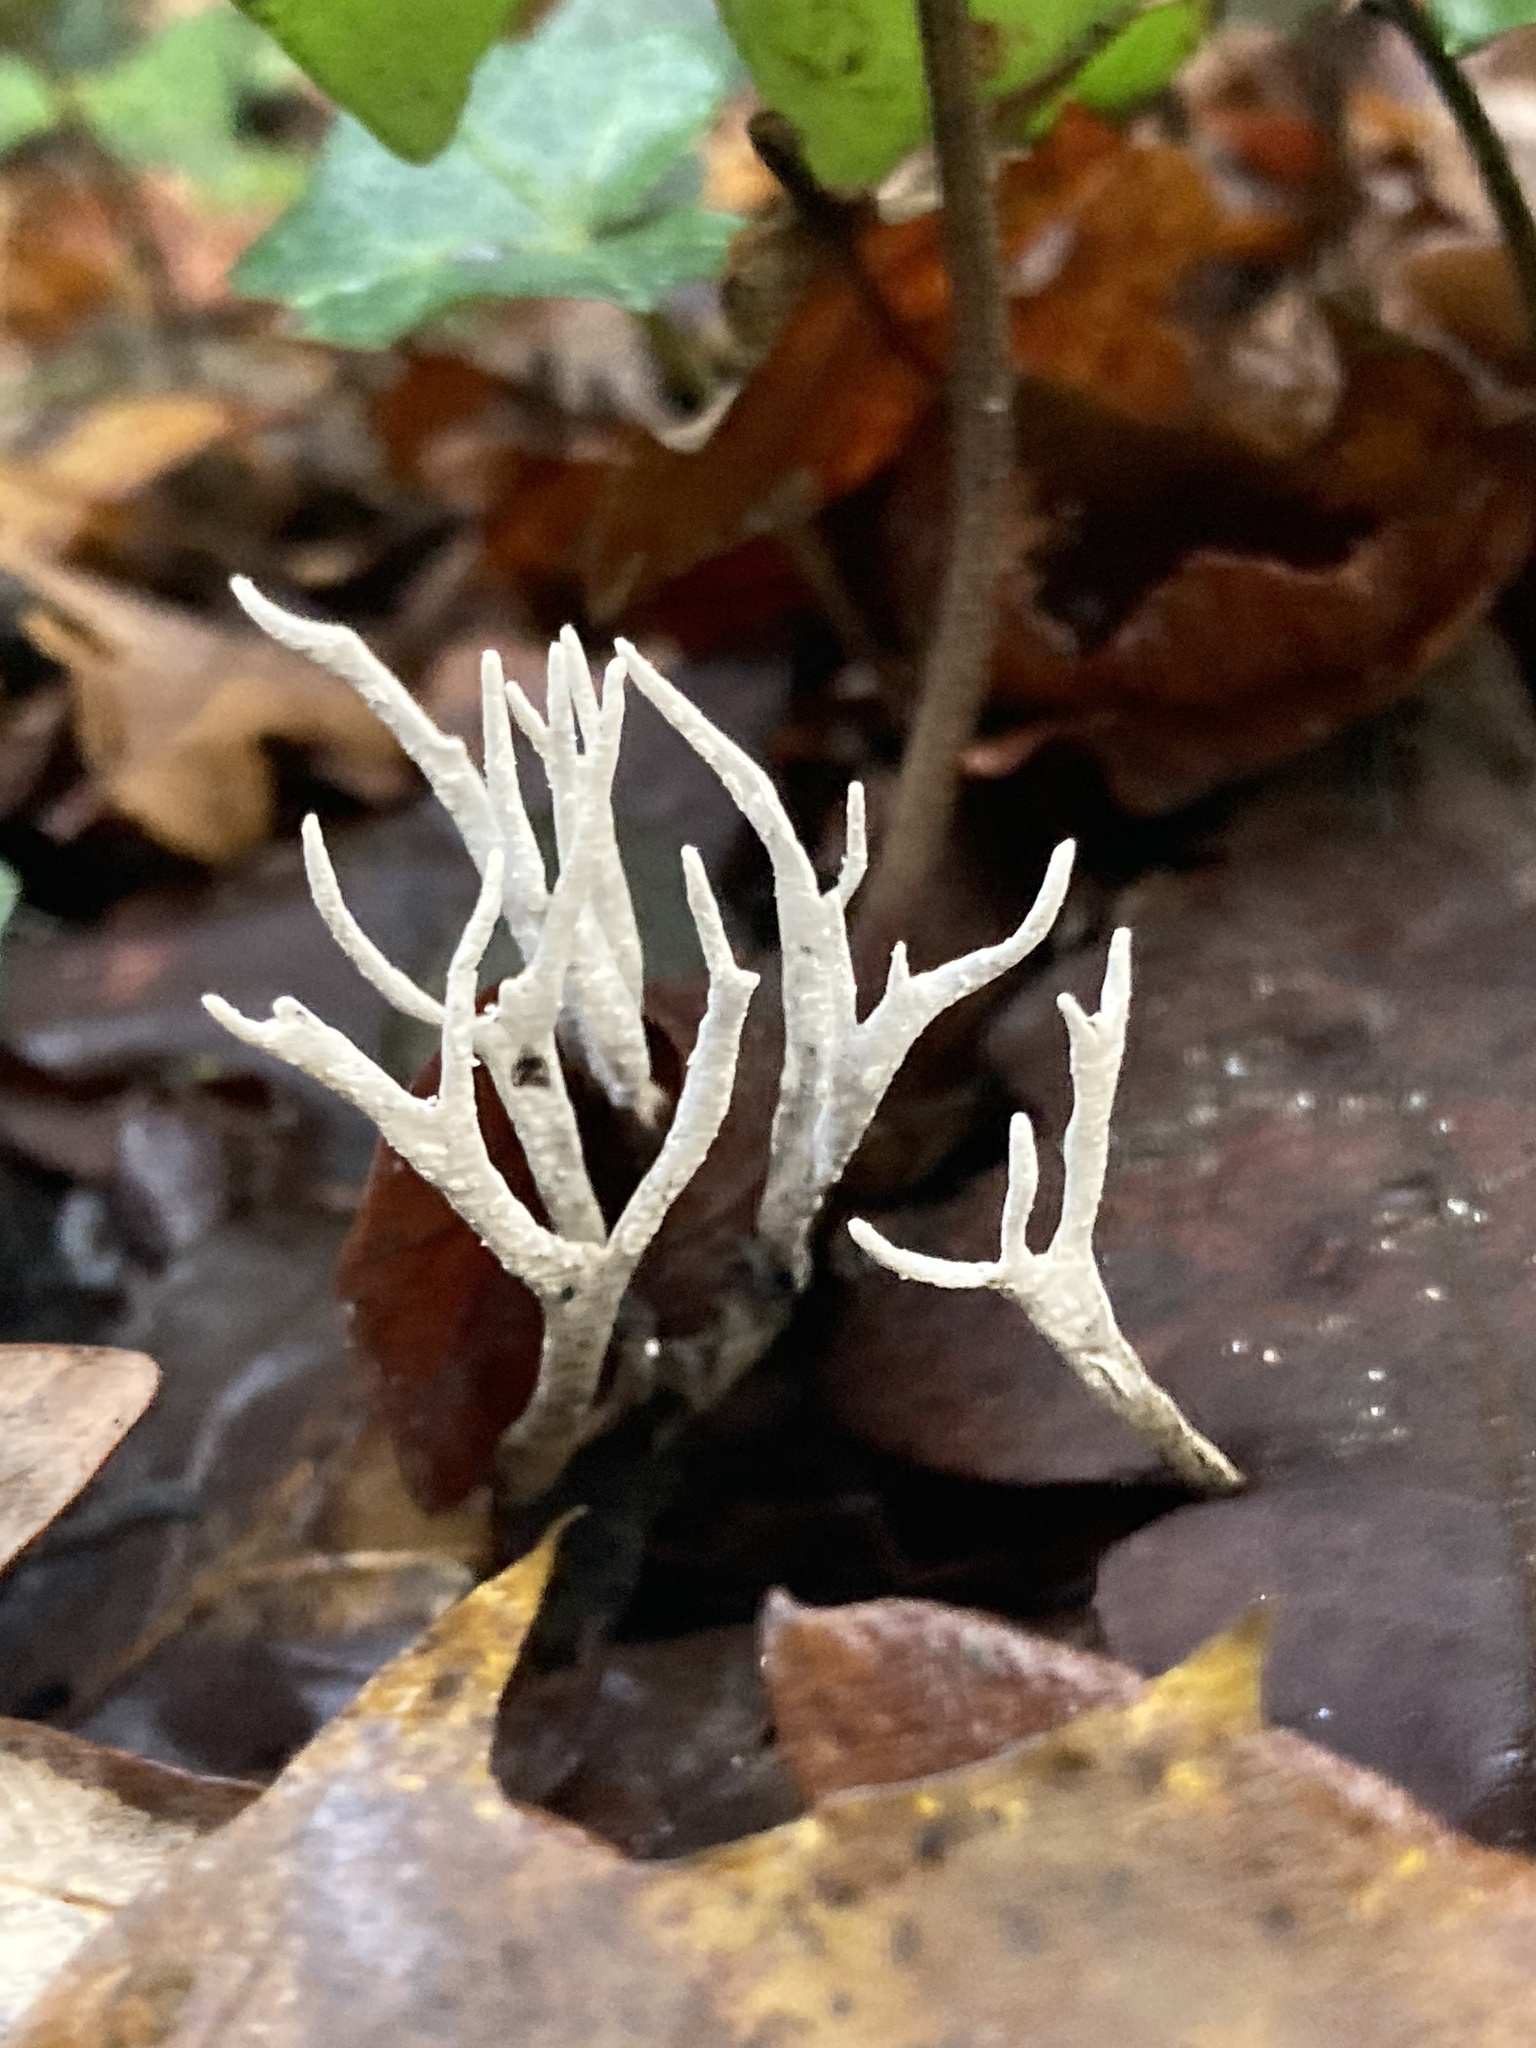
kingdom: Fungi
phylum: Ascomycota
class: Sordariomycetes
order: Xylariales
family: Xylariaceae
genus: Xylaria
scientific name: Xylaria hypoxylon
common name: Candle-snuff fungus
